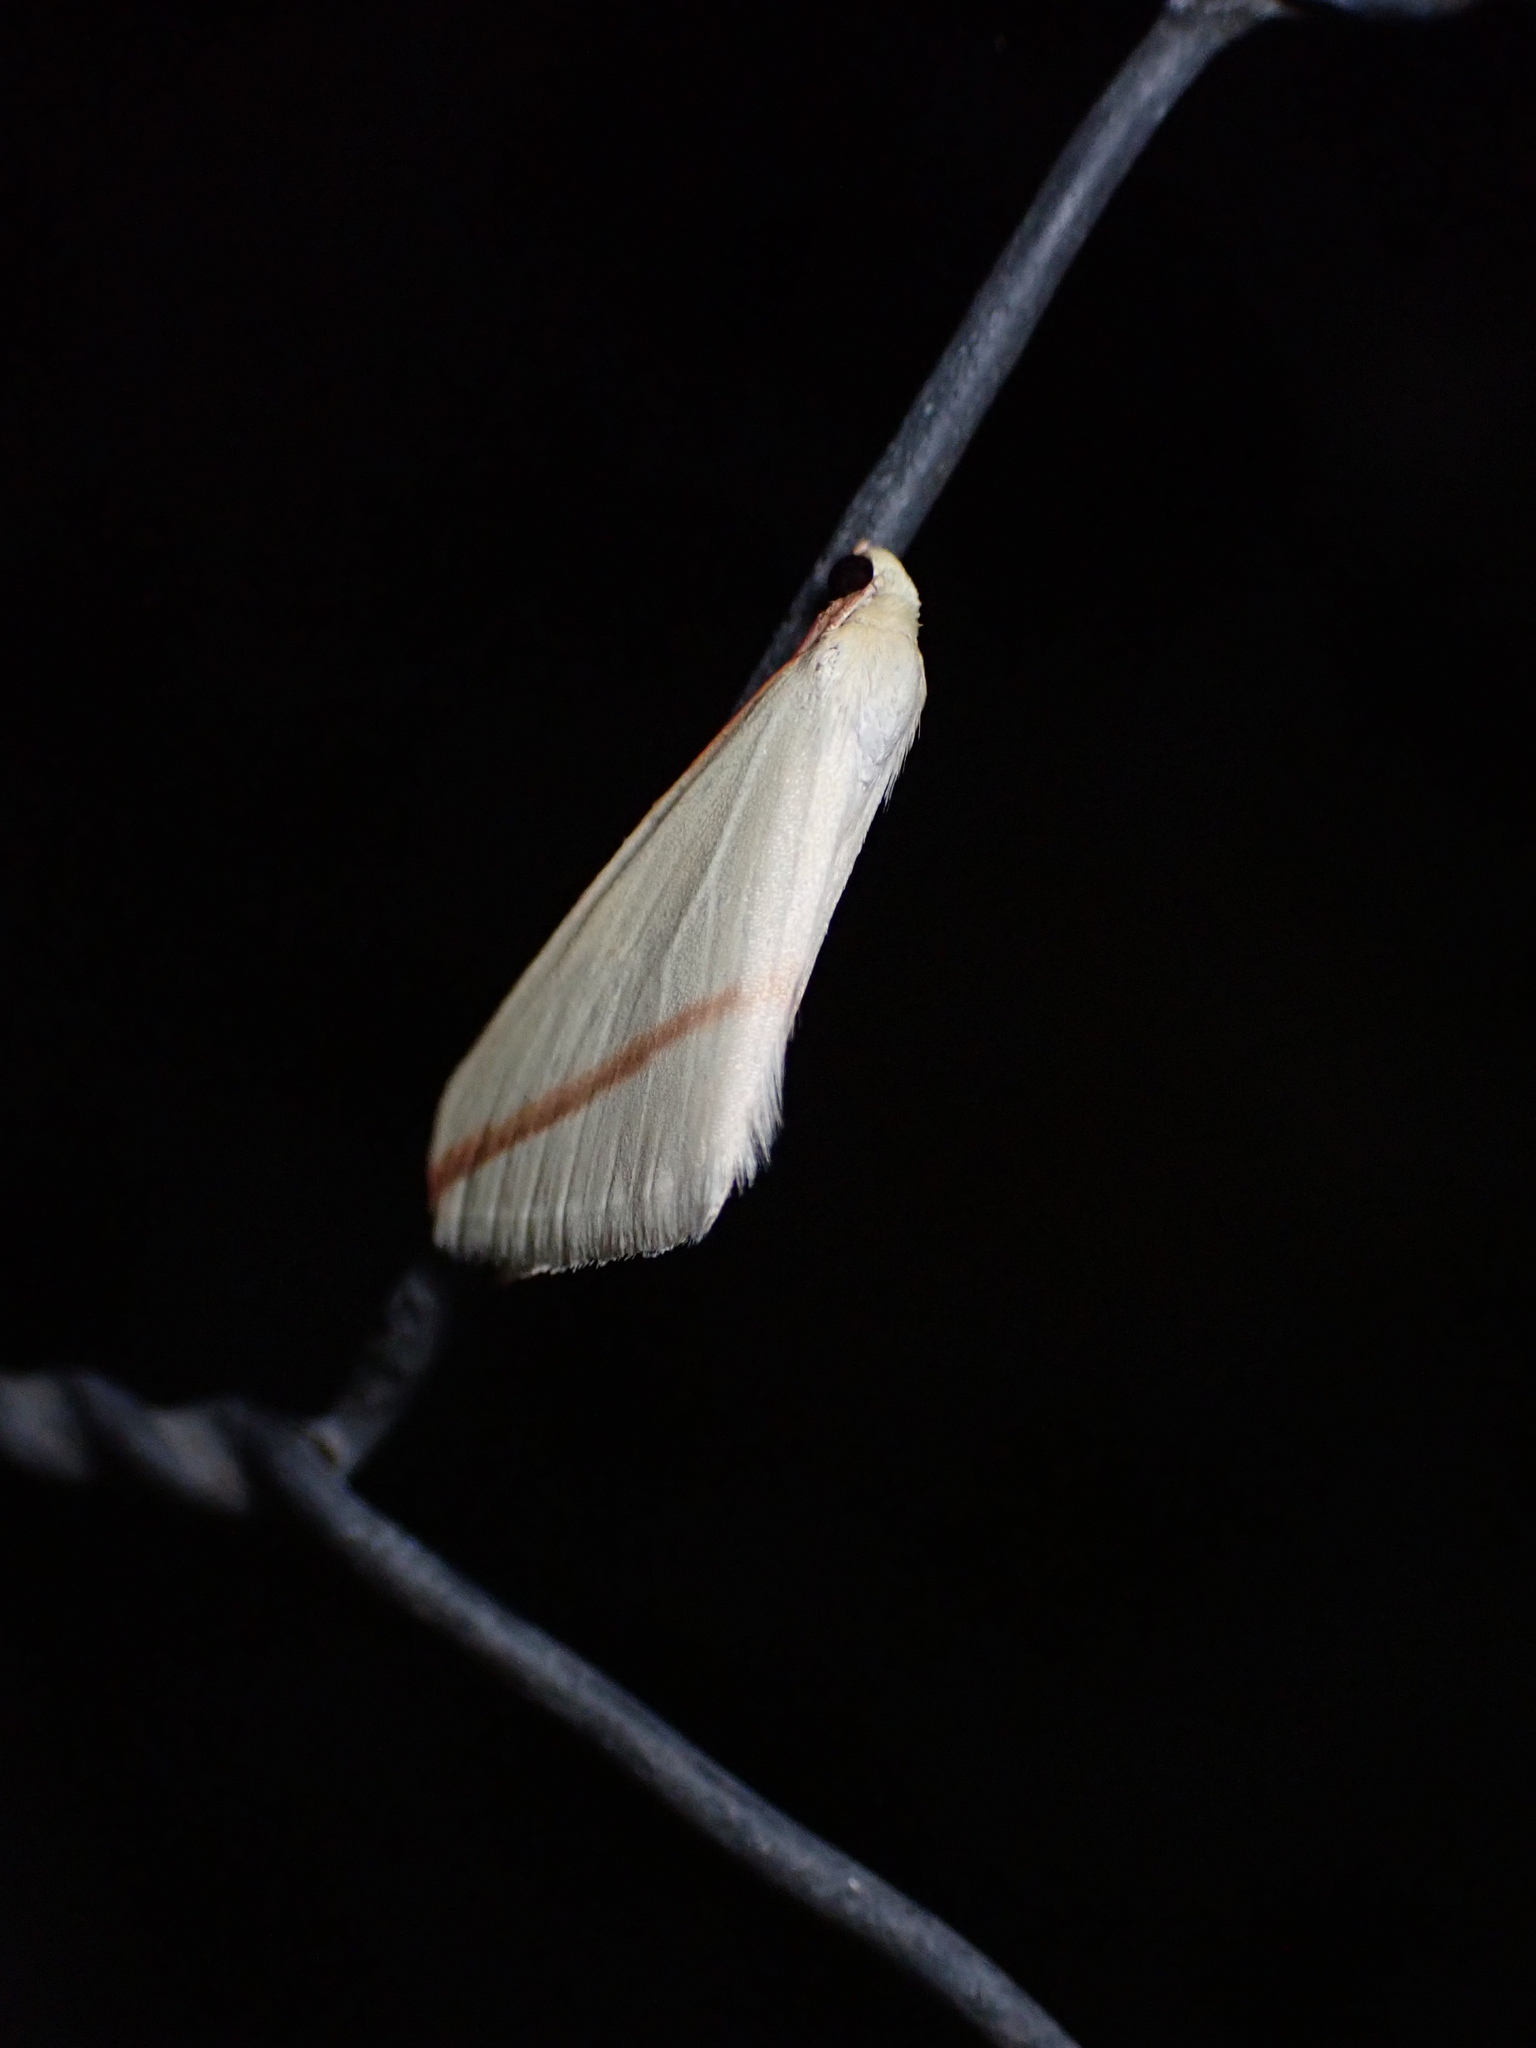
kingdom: Animalia
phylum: Arthropoda
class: Insecta
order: Lepidoptera
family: Geometridae
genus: Rhodometra
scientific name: Rhodometra sacraria
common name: Vestal
